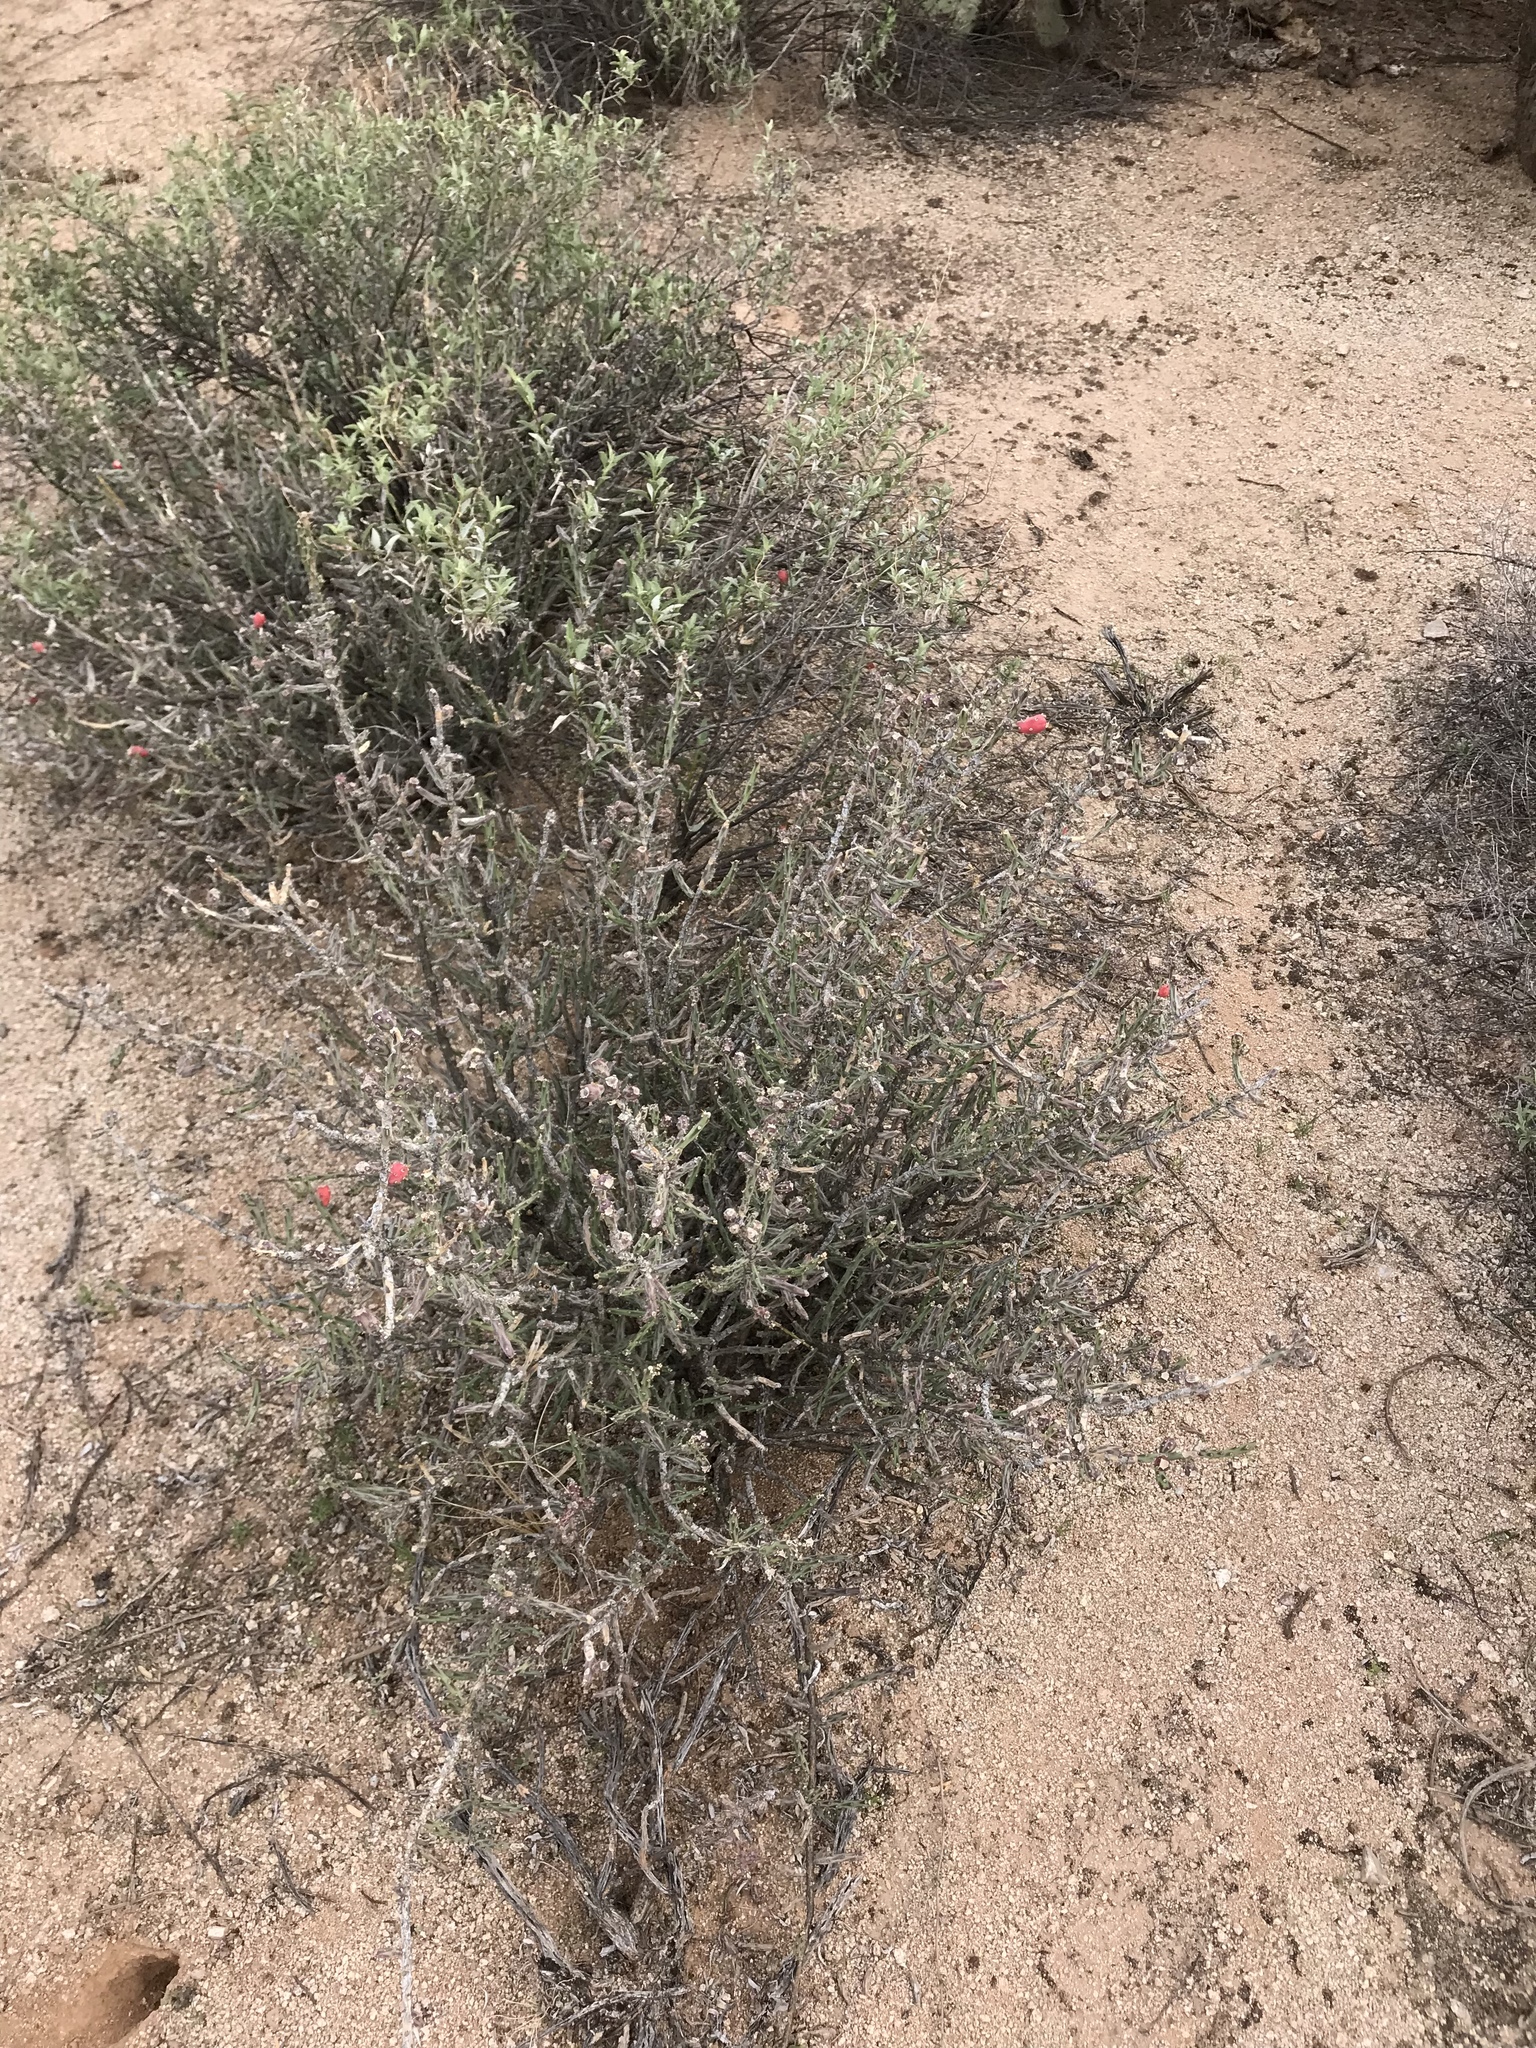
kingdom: Plantae
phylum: Tracheophyta
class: Magnoliopsida
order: Caryophyllales
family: Cactaceae
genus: Cylindropuntia
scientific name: Cylindropuntia leptocaulis
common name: Christmas cactus
